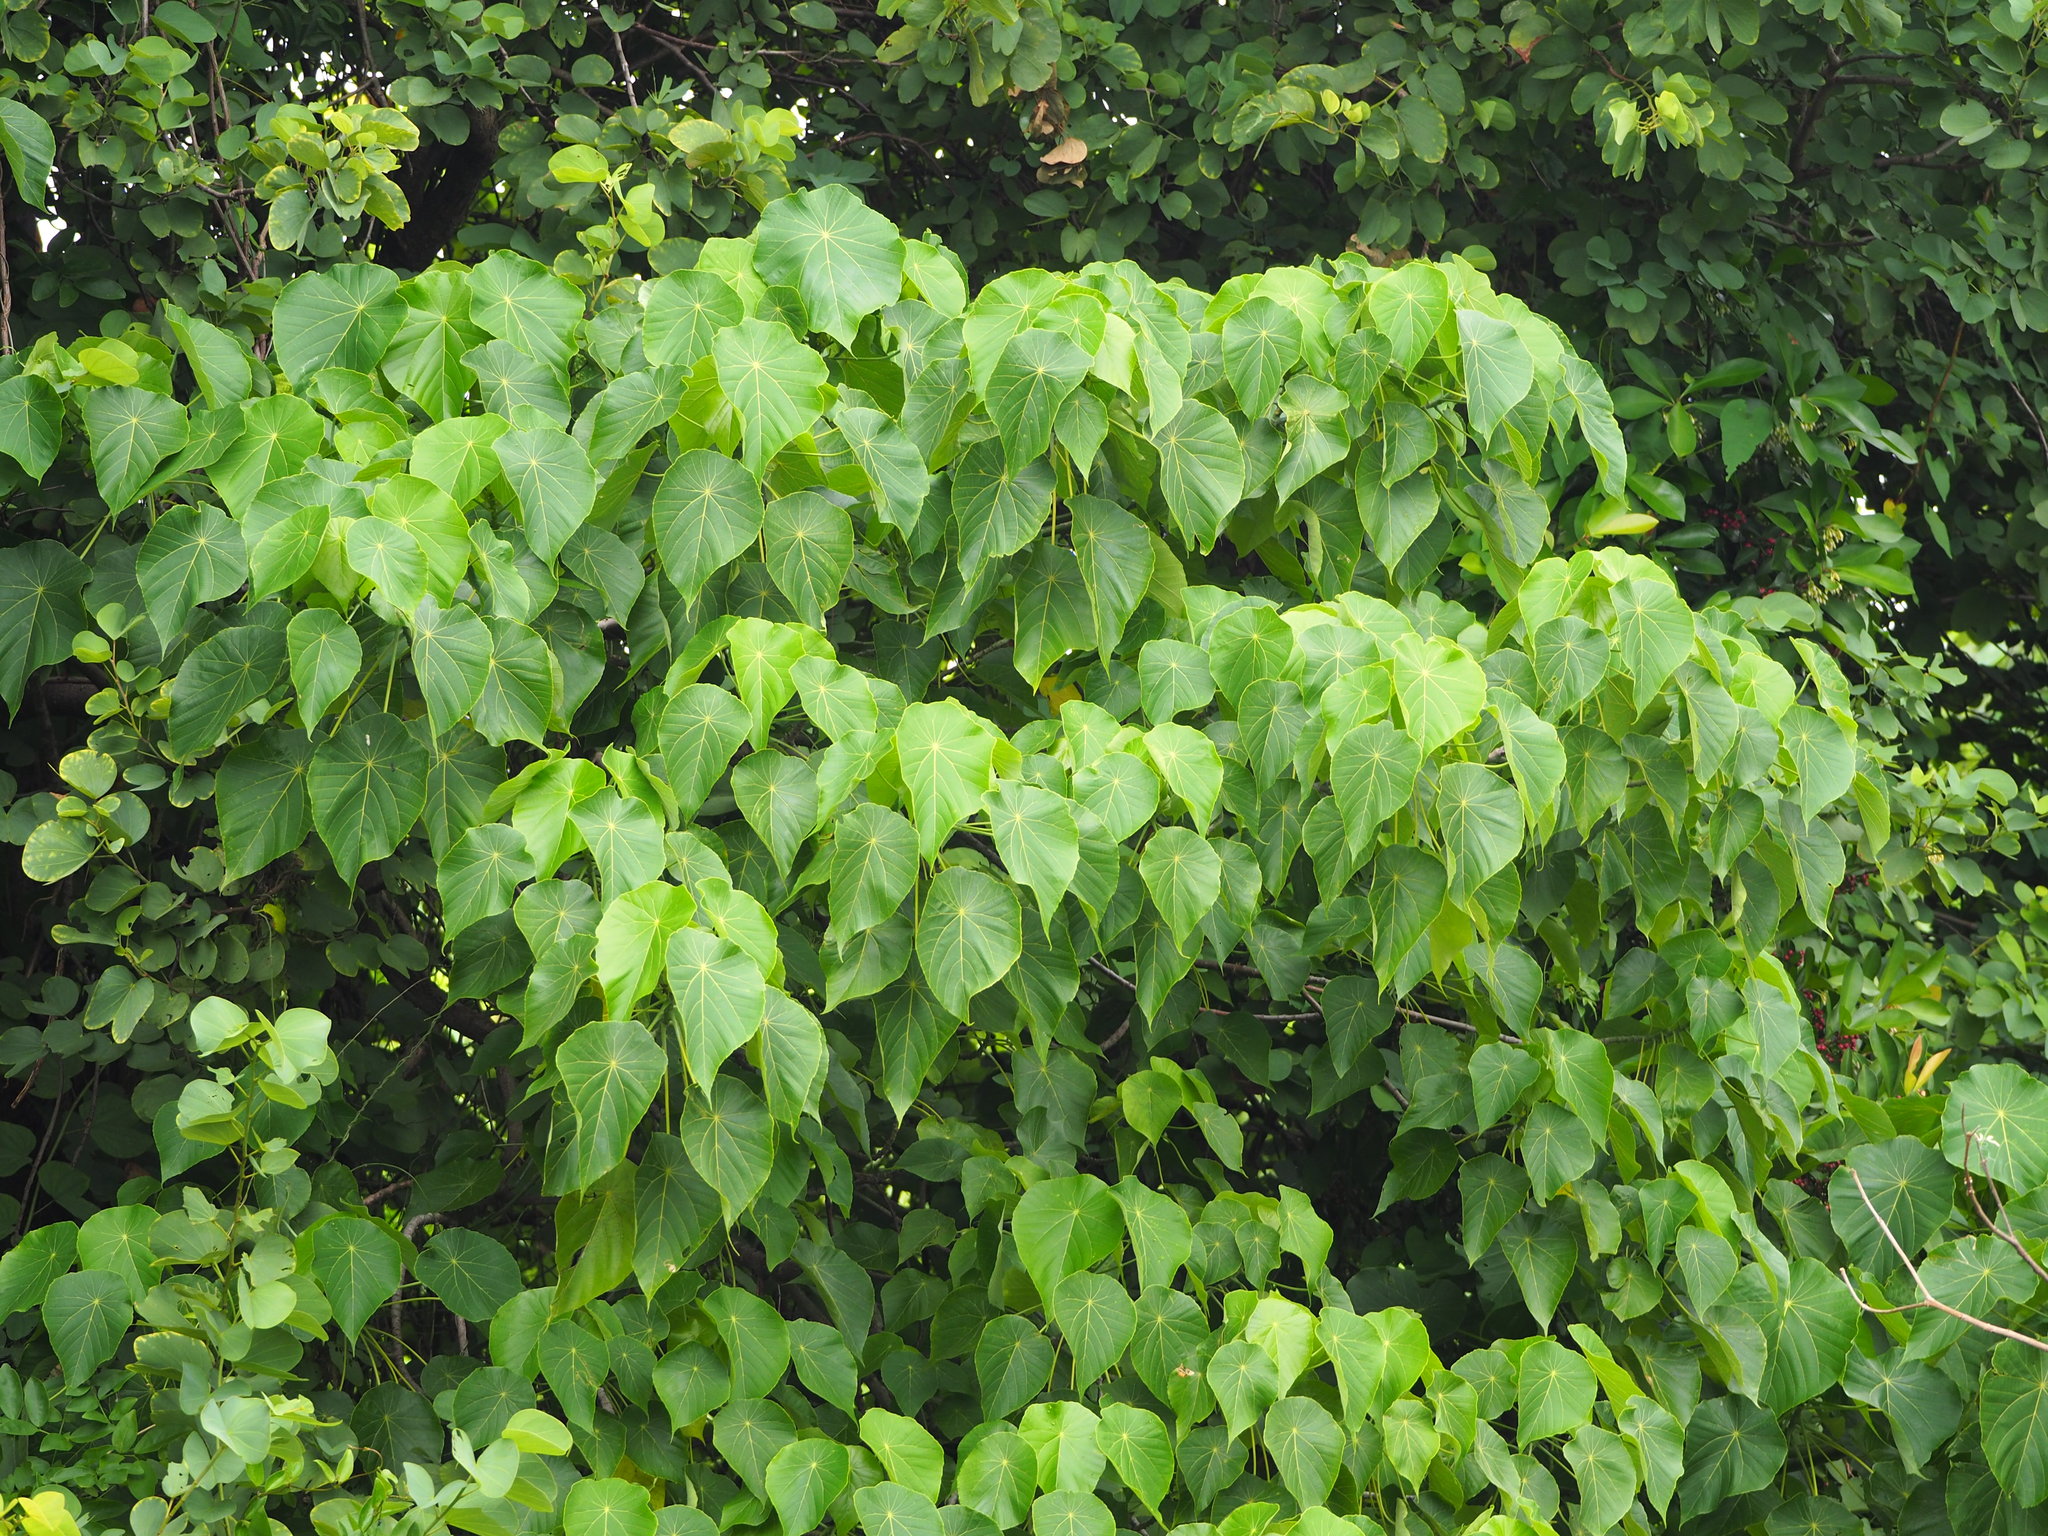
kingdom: Plantae
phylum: Tracheophyta
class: Magnoliopsida
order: Malpighiales
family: Euphorbiaceae
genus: Macaranga
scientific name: Macaranga tanarius
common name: Parasol leaf tree
